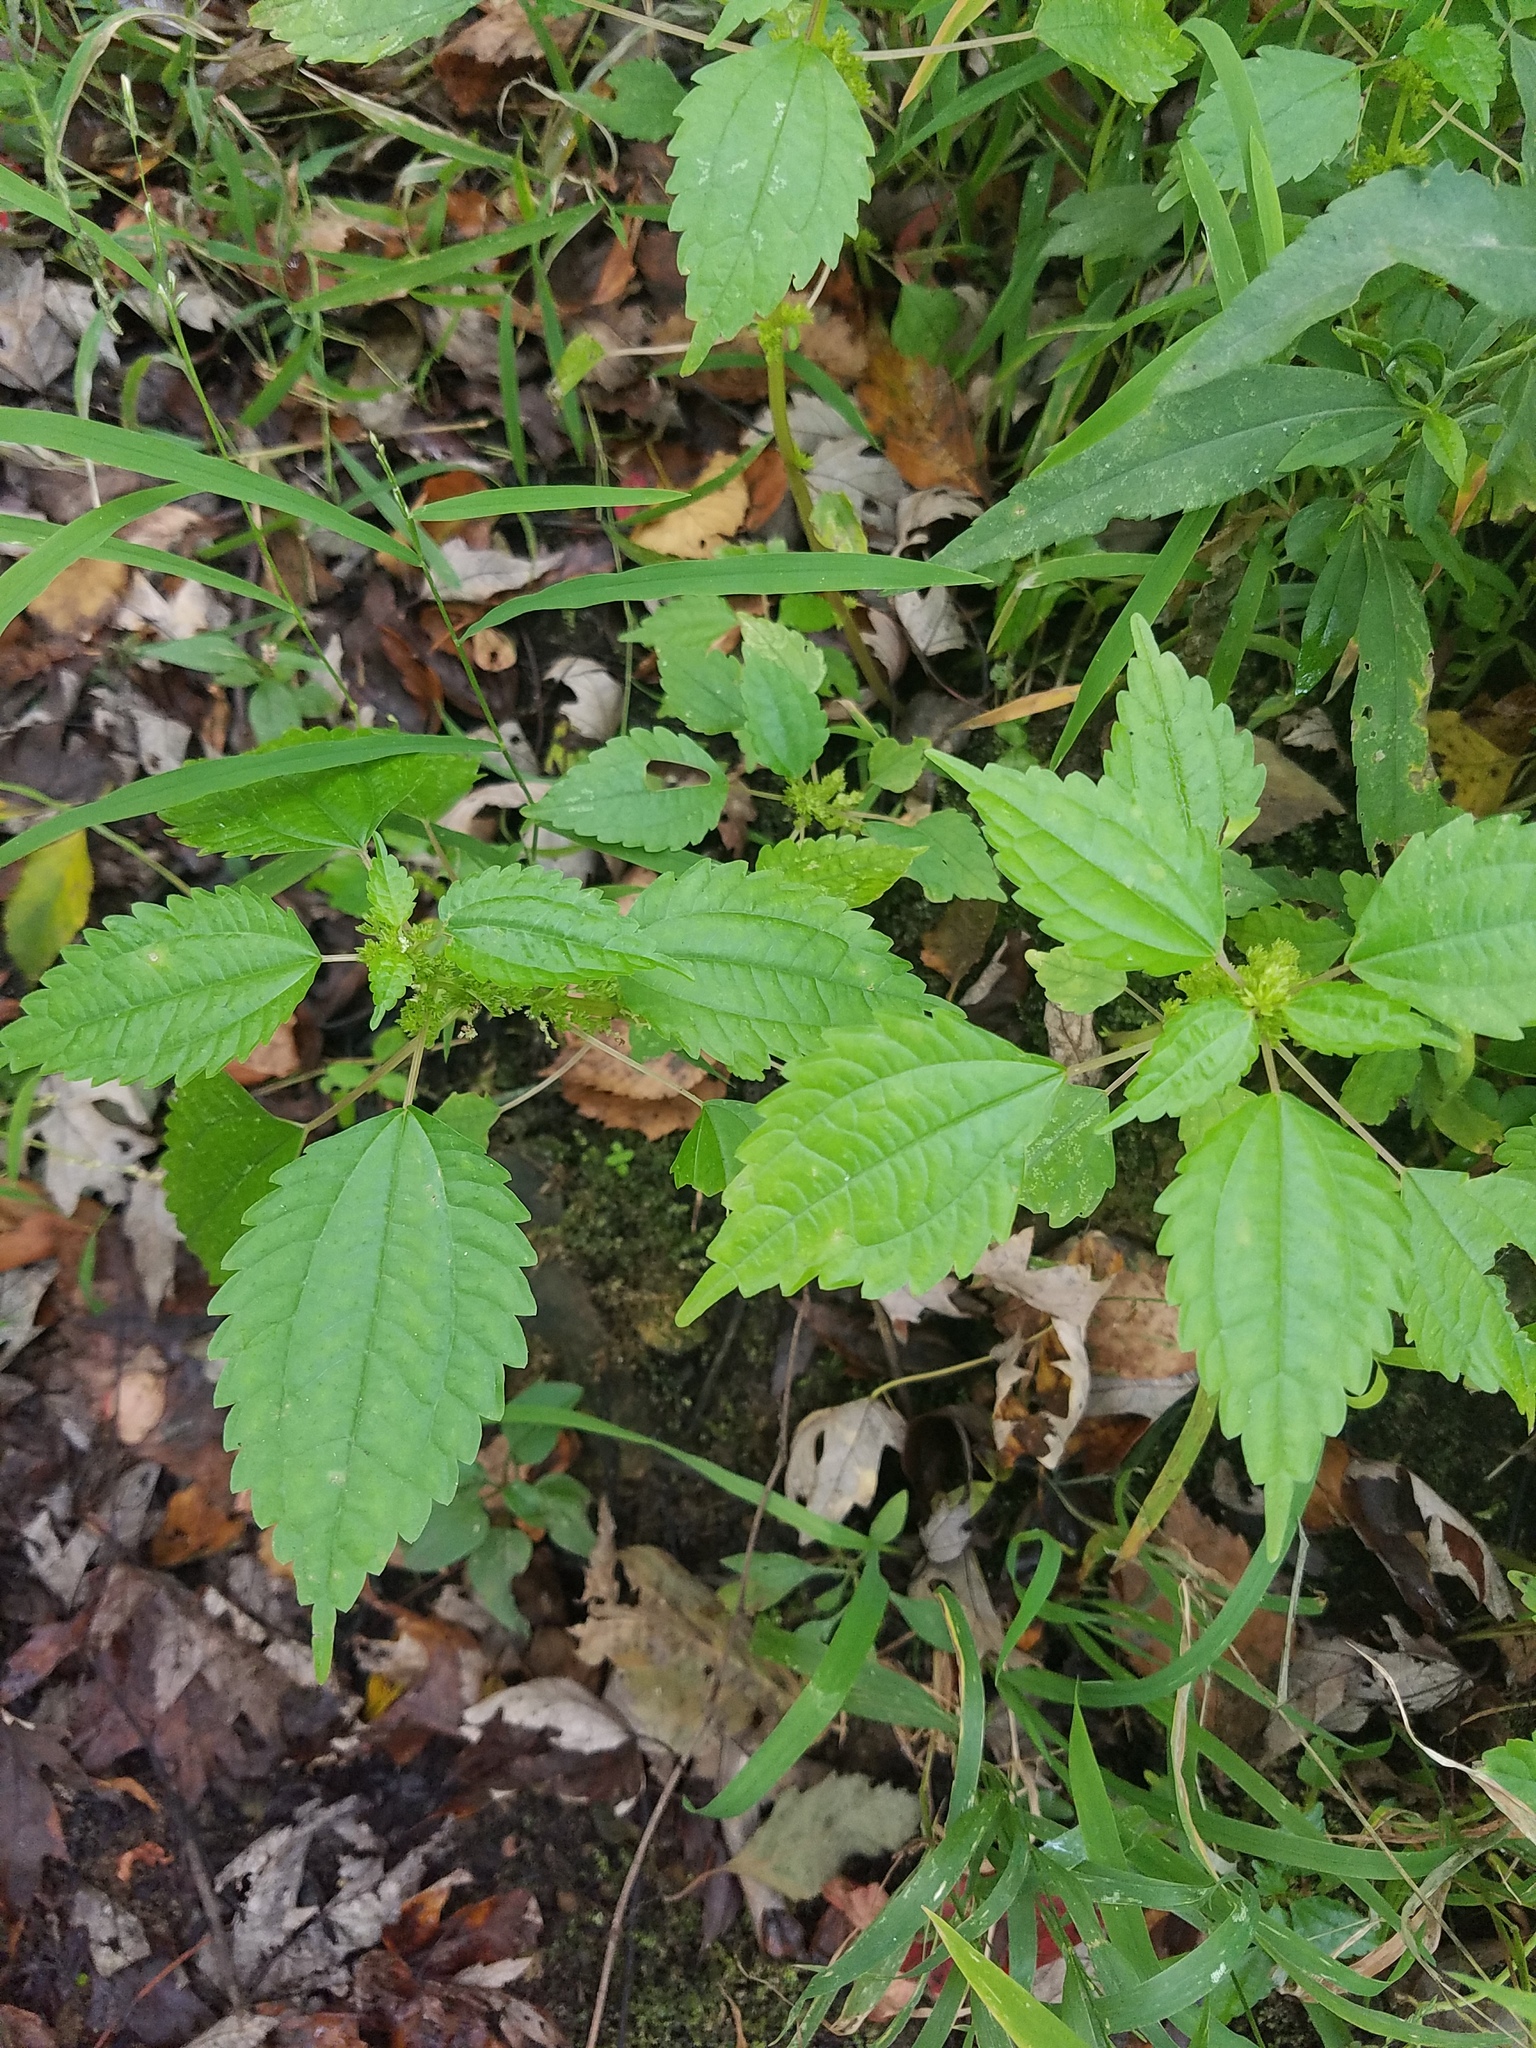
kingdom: Plantae
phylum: Tracheophyta
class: Magnoliopsida
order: Rosales
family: Urticaceae
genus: Pilea
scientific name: Pilea pumila
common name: Clearweed
